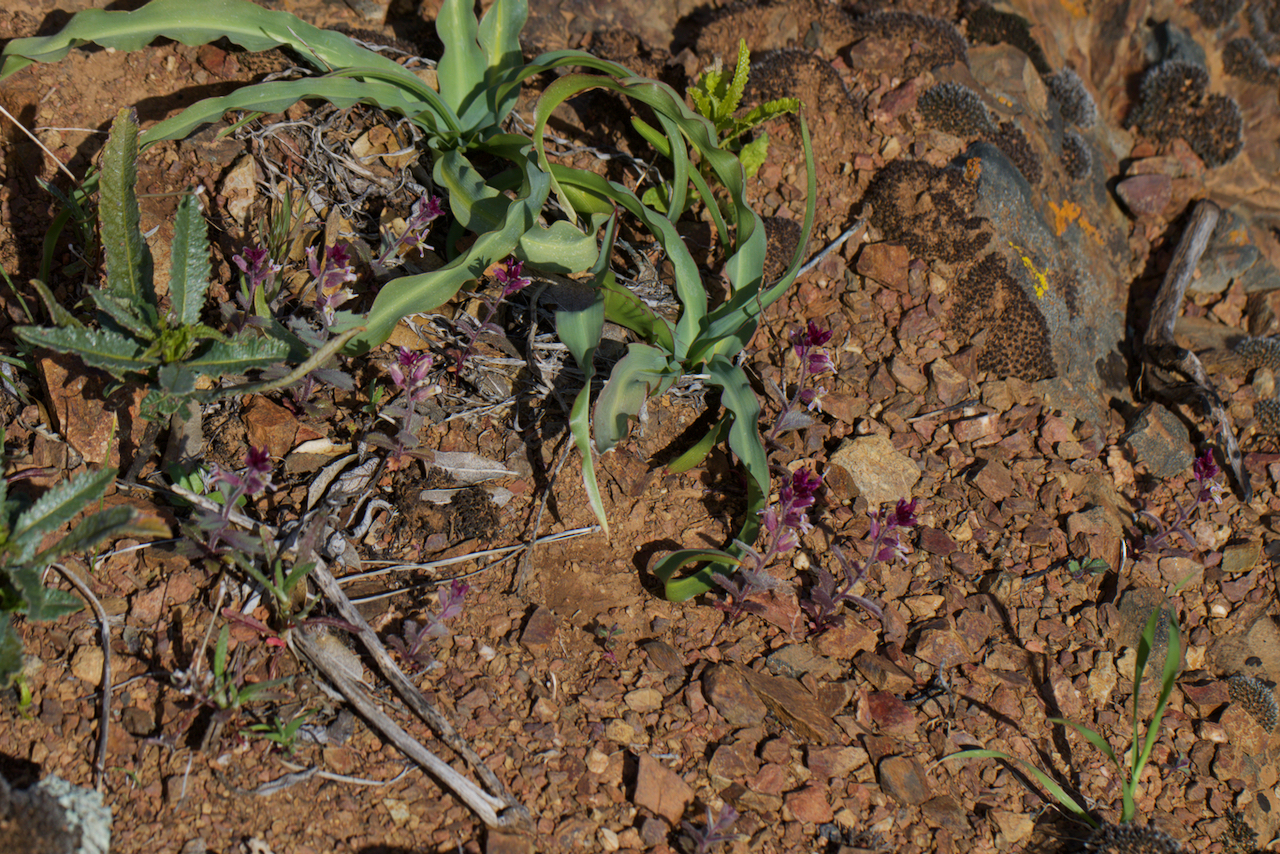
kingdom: Plantae
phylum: Tracheophyta
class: Magnoliopsida
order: Brassicales
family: Brassicaceae
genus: Streptanthus
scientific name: Streptanthus hispidus
